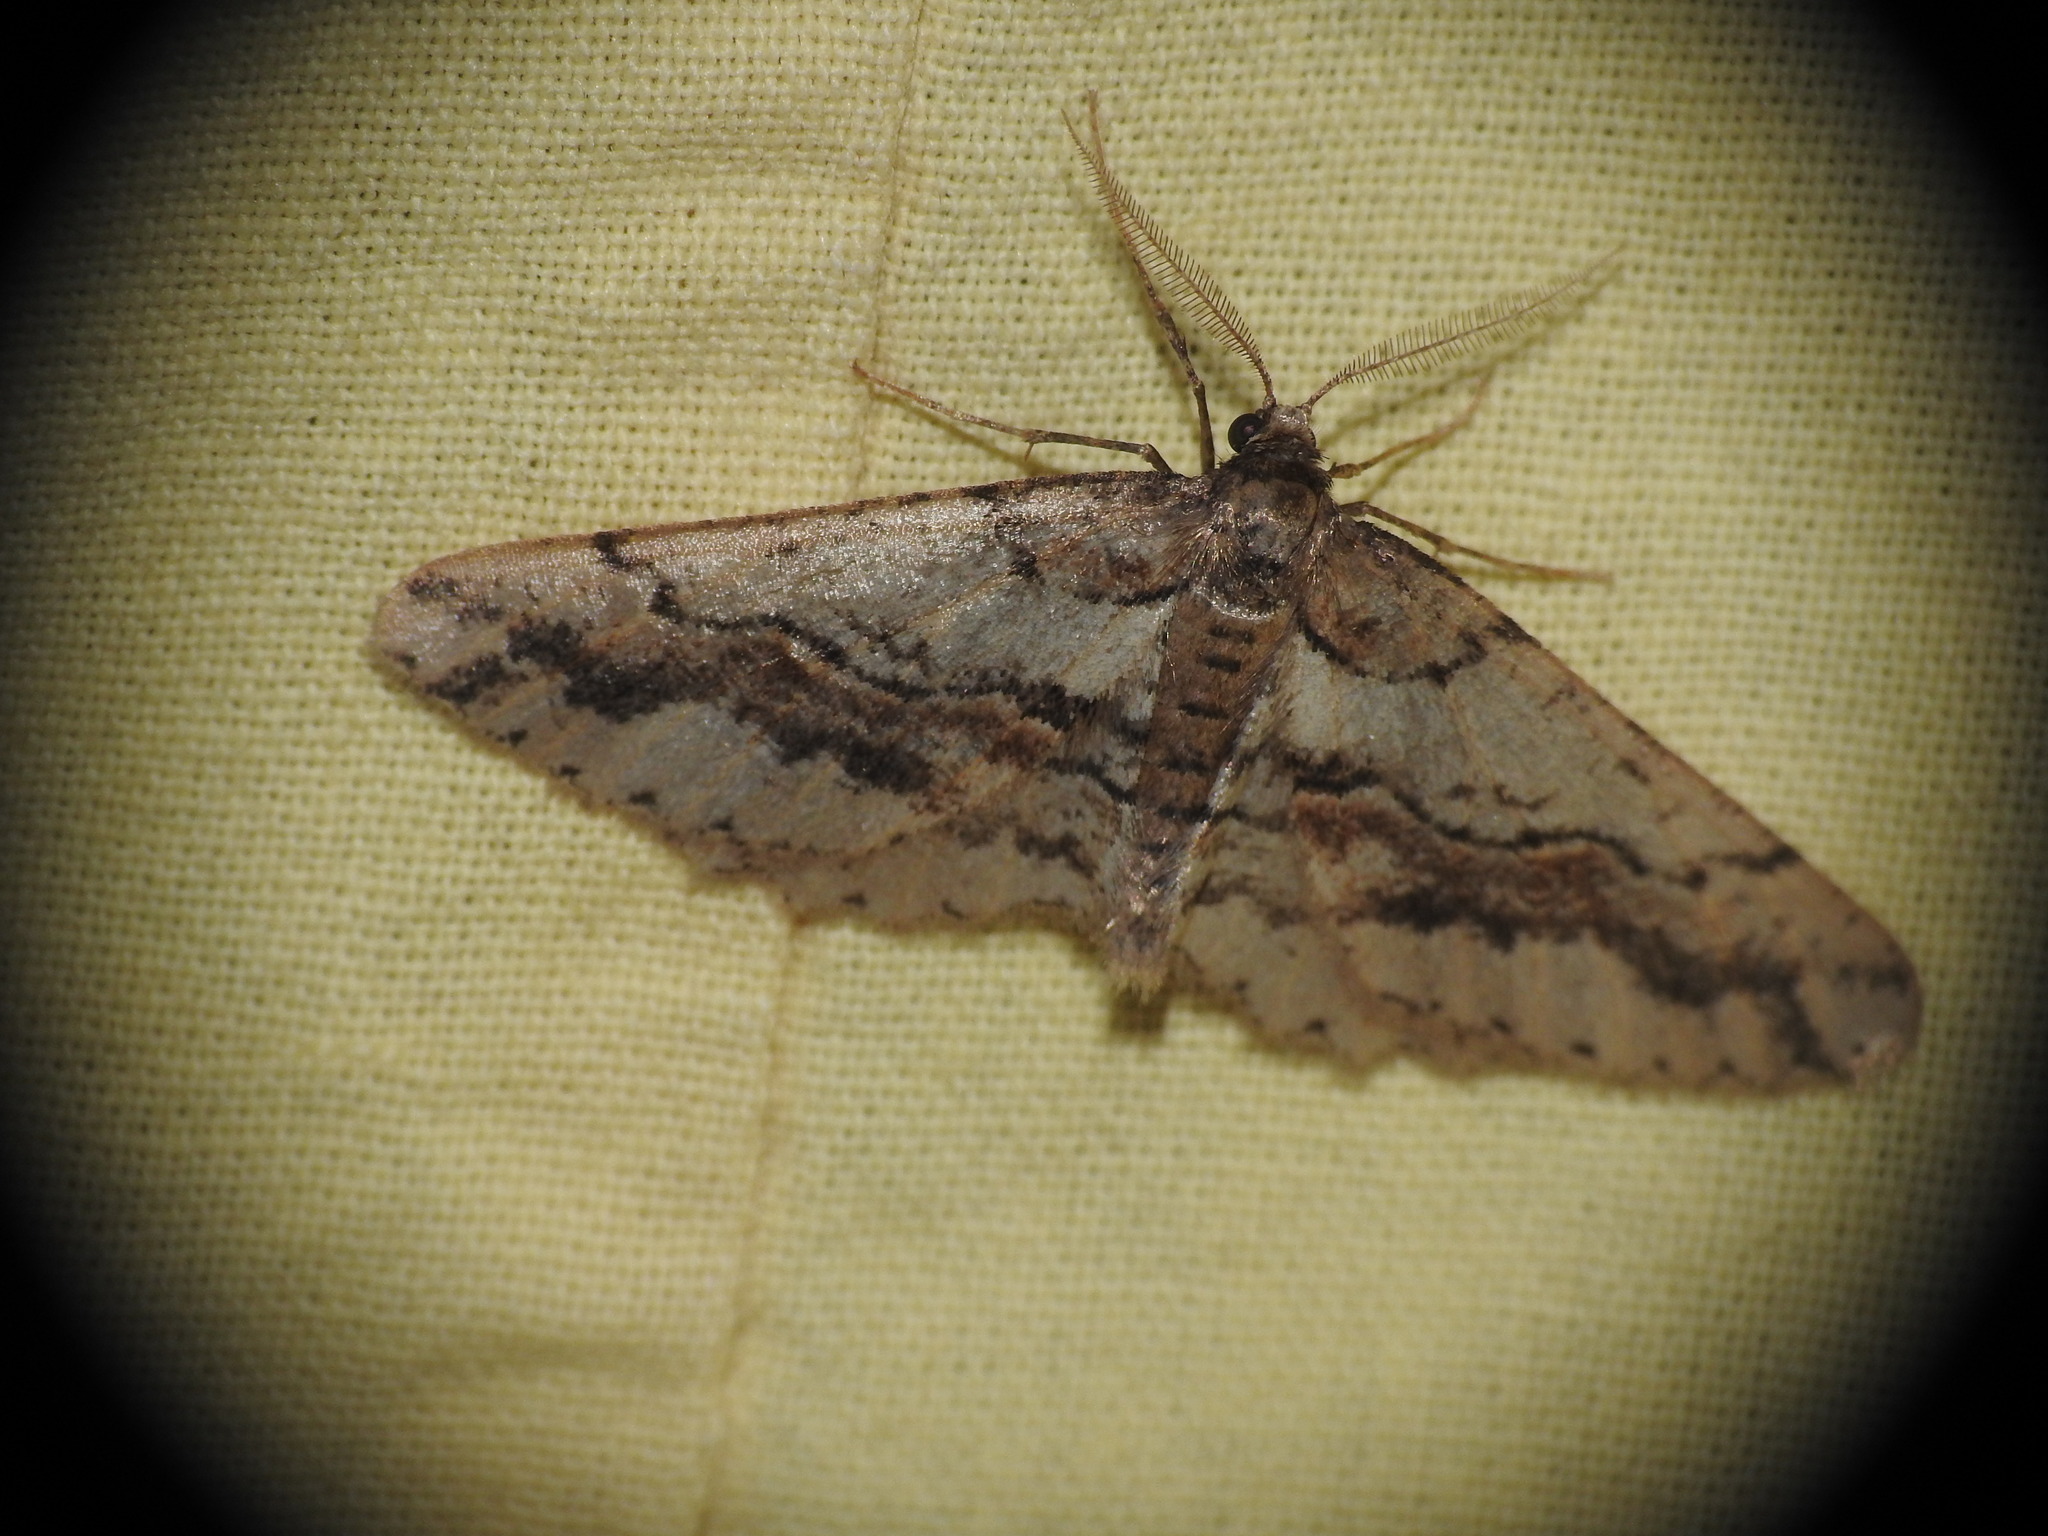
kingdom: Animalia
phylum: Arthropoda
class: Insecta
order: Lepidoptera
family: Geometridae
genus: Agriopis
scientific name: Agriopis bajaria
